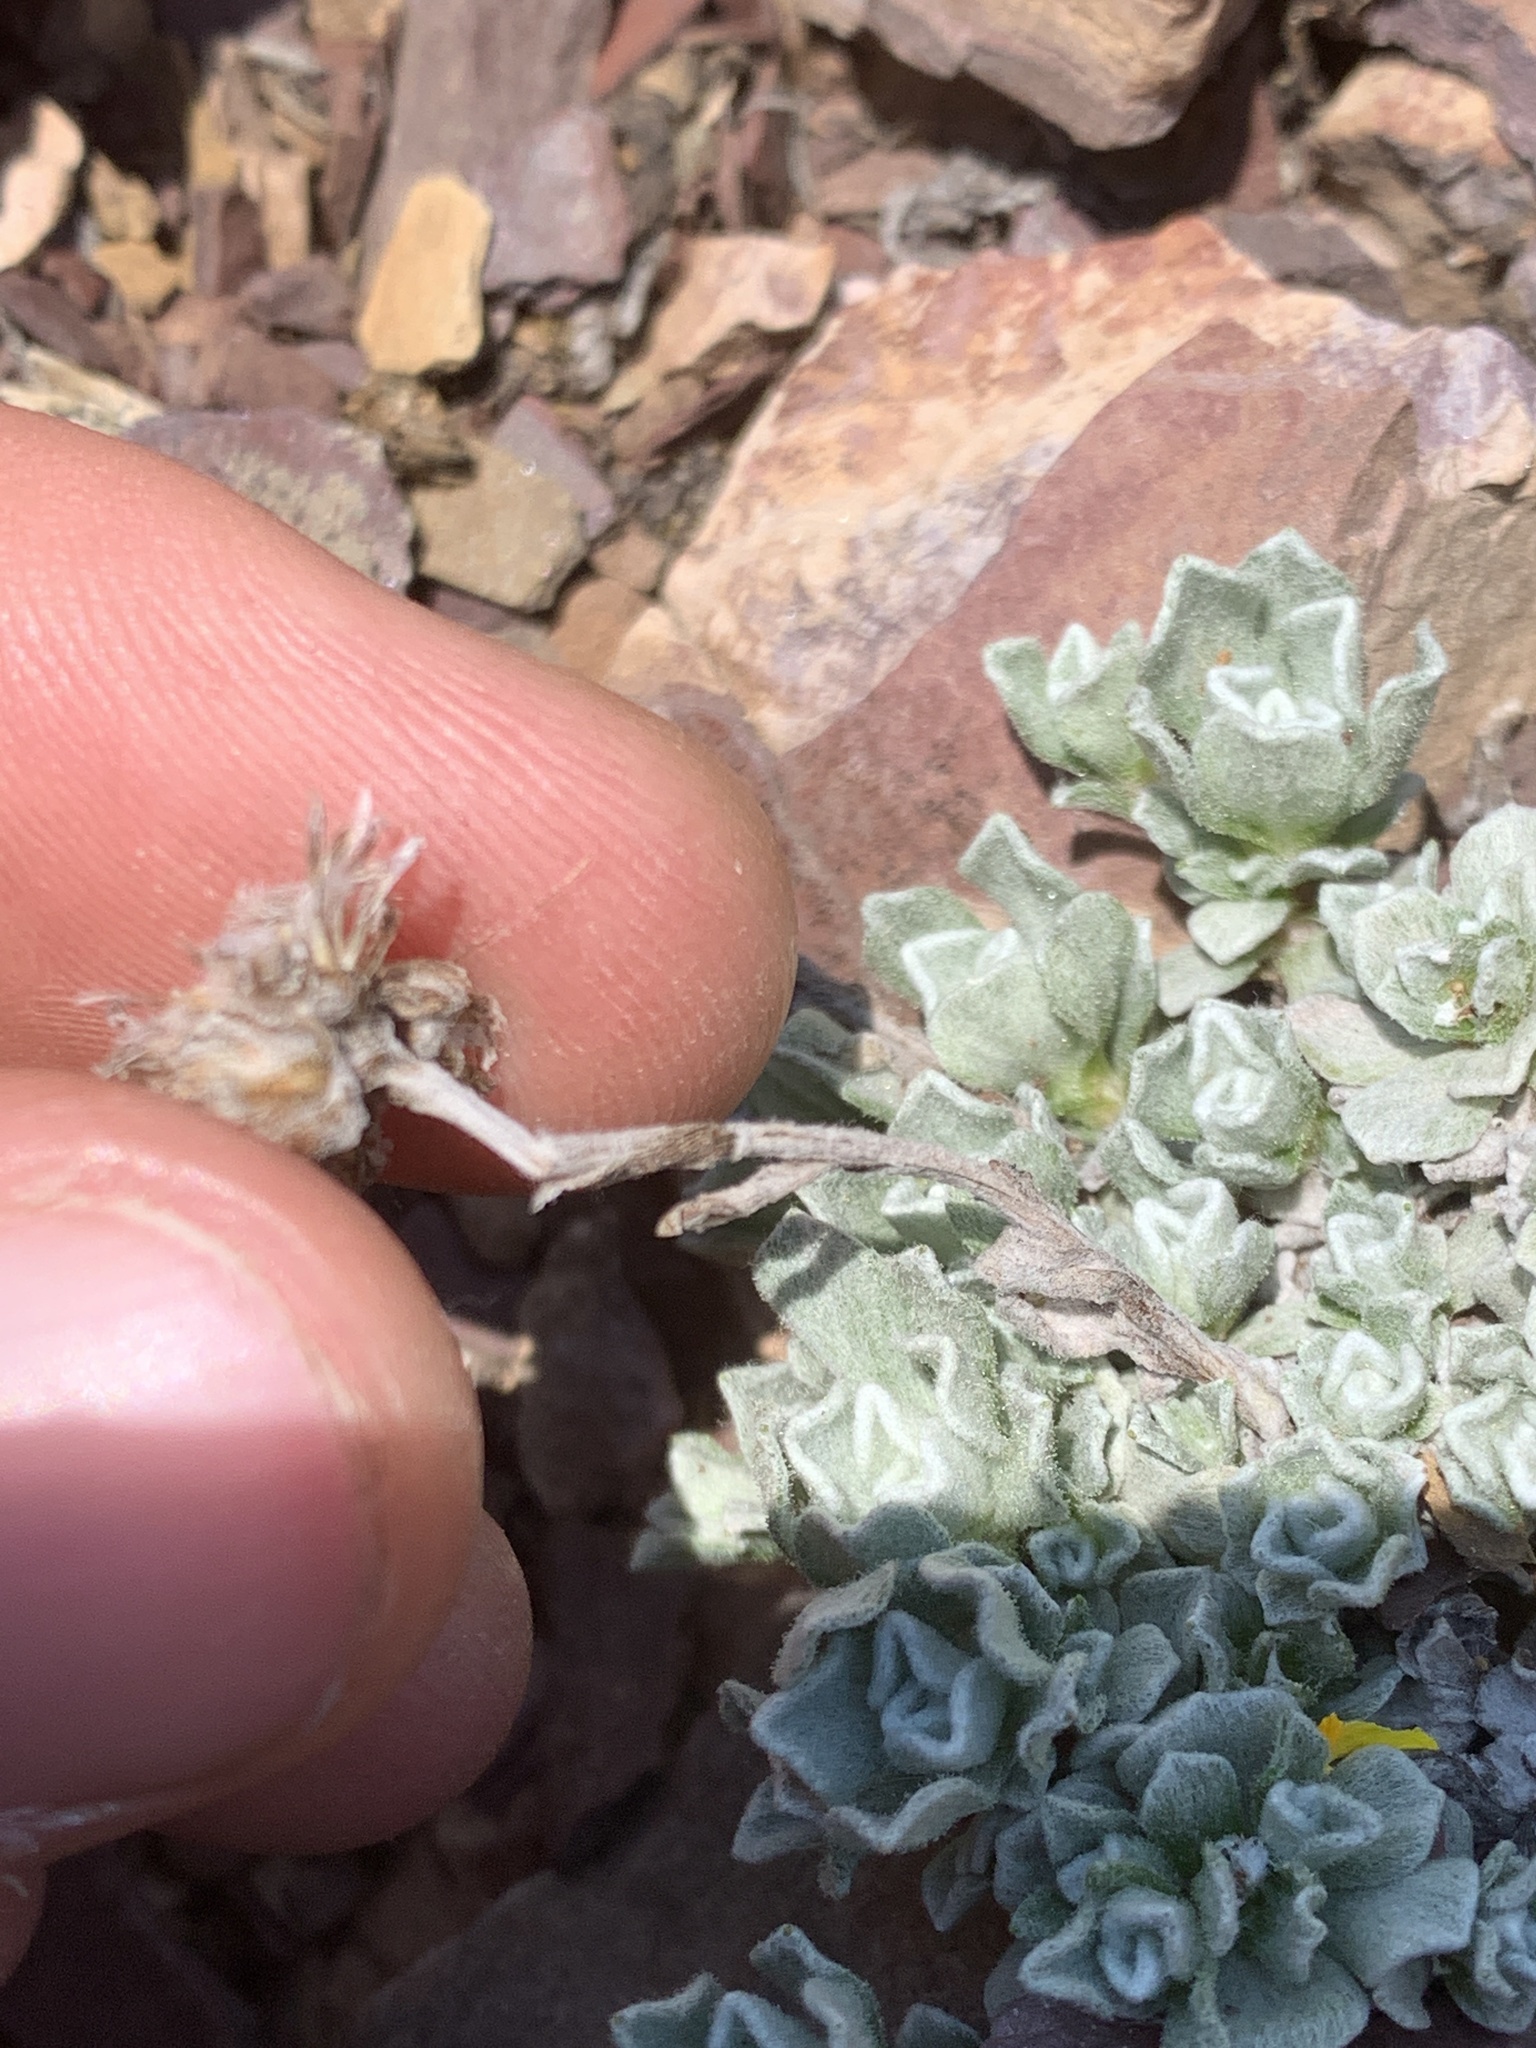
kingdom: Plantae
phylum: Tracheophyta
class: Magnoliopsida
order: Asterales
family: Asteraceae
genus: Antennaria
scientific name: Antennaria aromatica
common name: Aromatic everlasting
